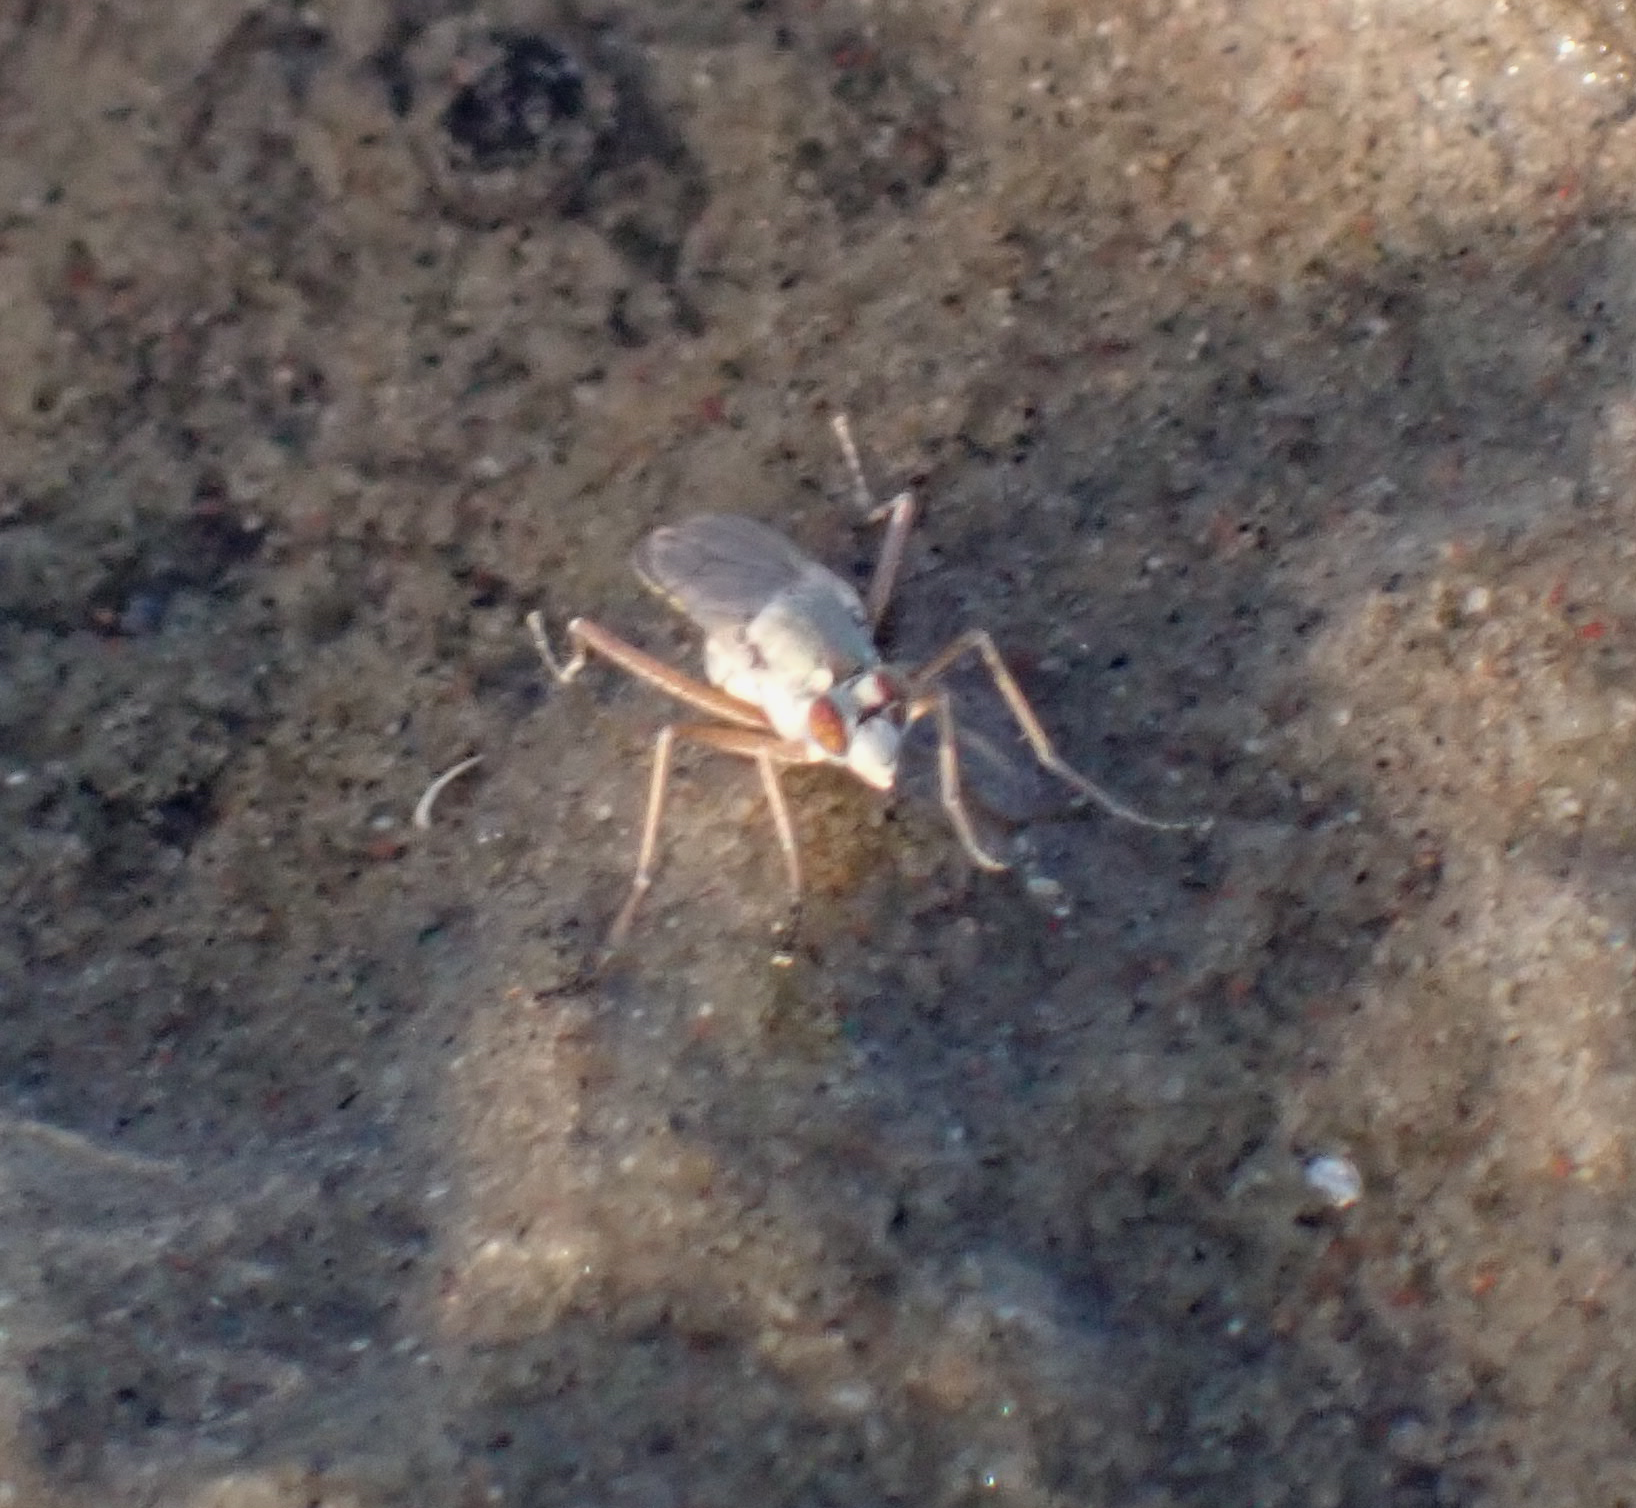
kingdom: Animalia
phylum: Arthropoda
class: Insecta
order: Diptera
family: Dolichopodidae
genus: Hypocharassus
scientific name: Hypocharassus pruinosus
